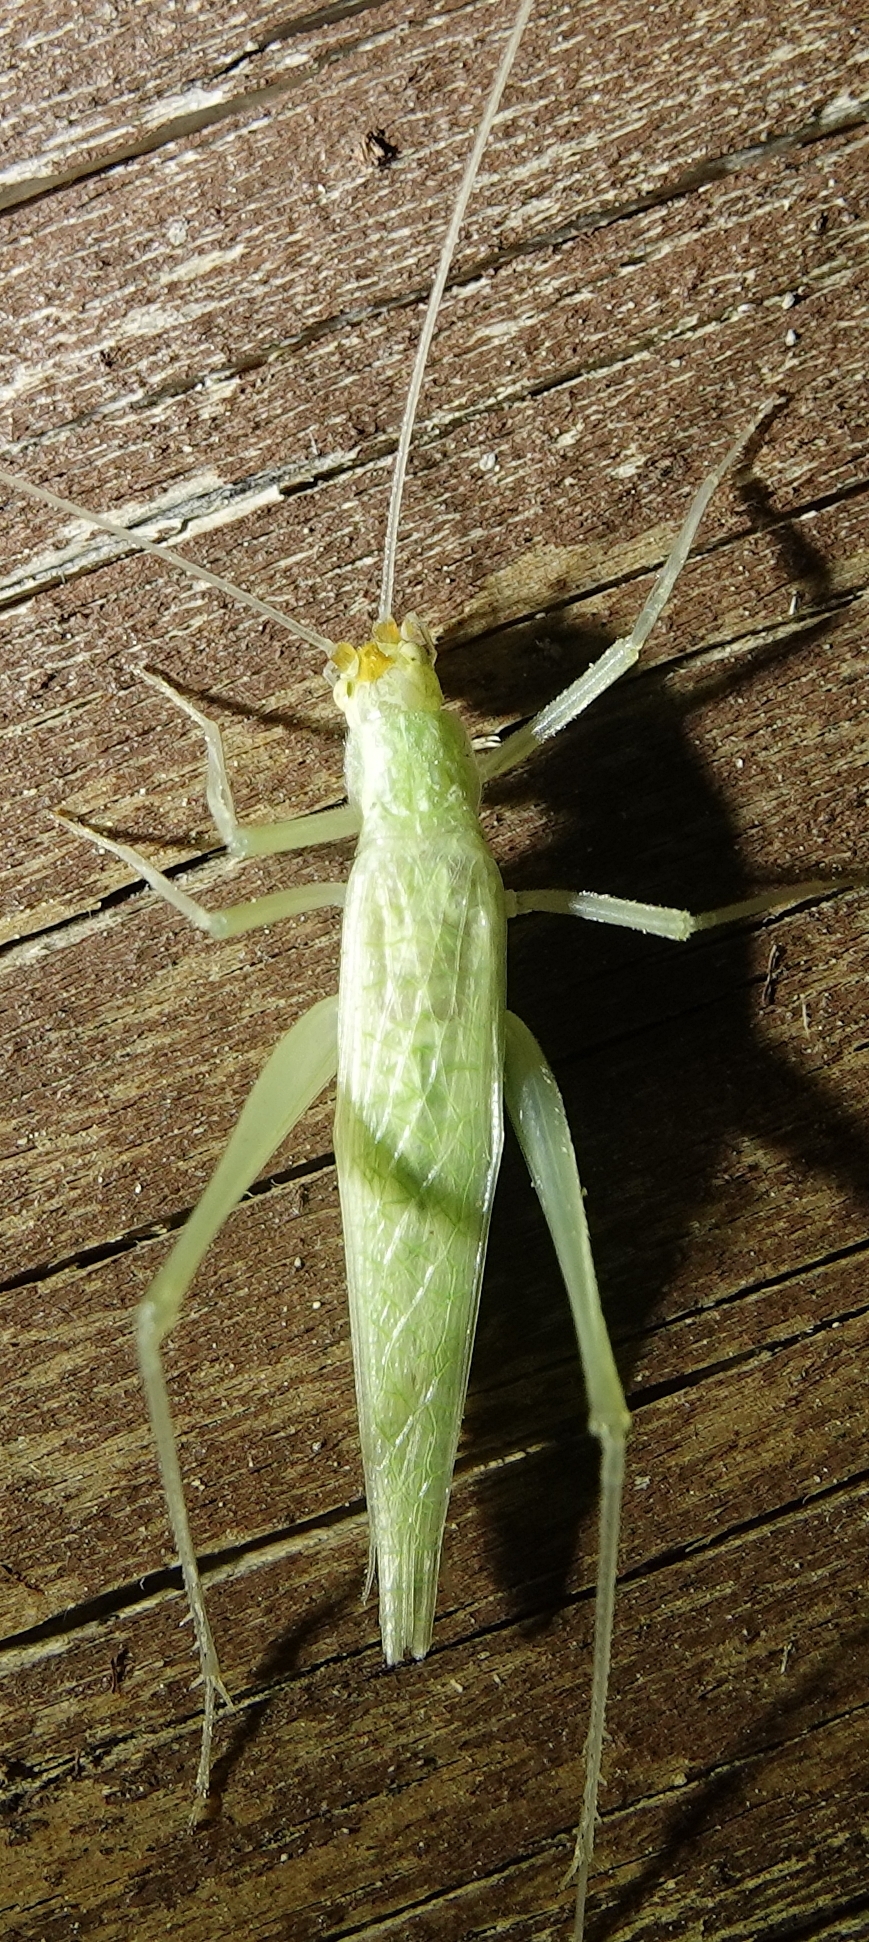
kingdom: Animalia
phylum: Arthropoda
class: Insecta
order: Orthoptera
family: Gryllidae
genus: Oecanthus
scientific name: Oecanthus
